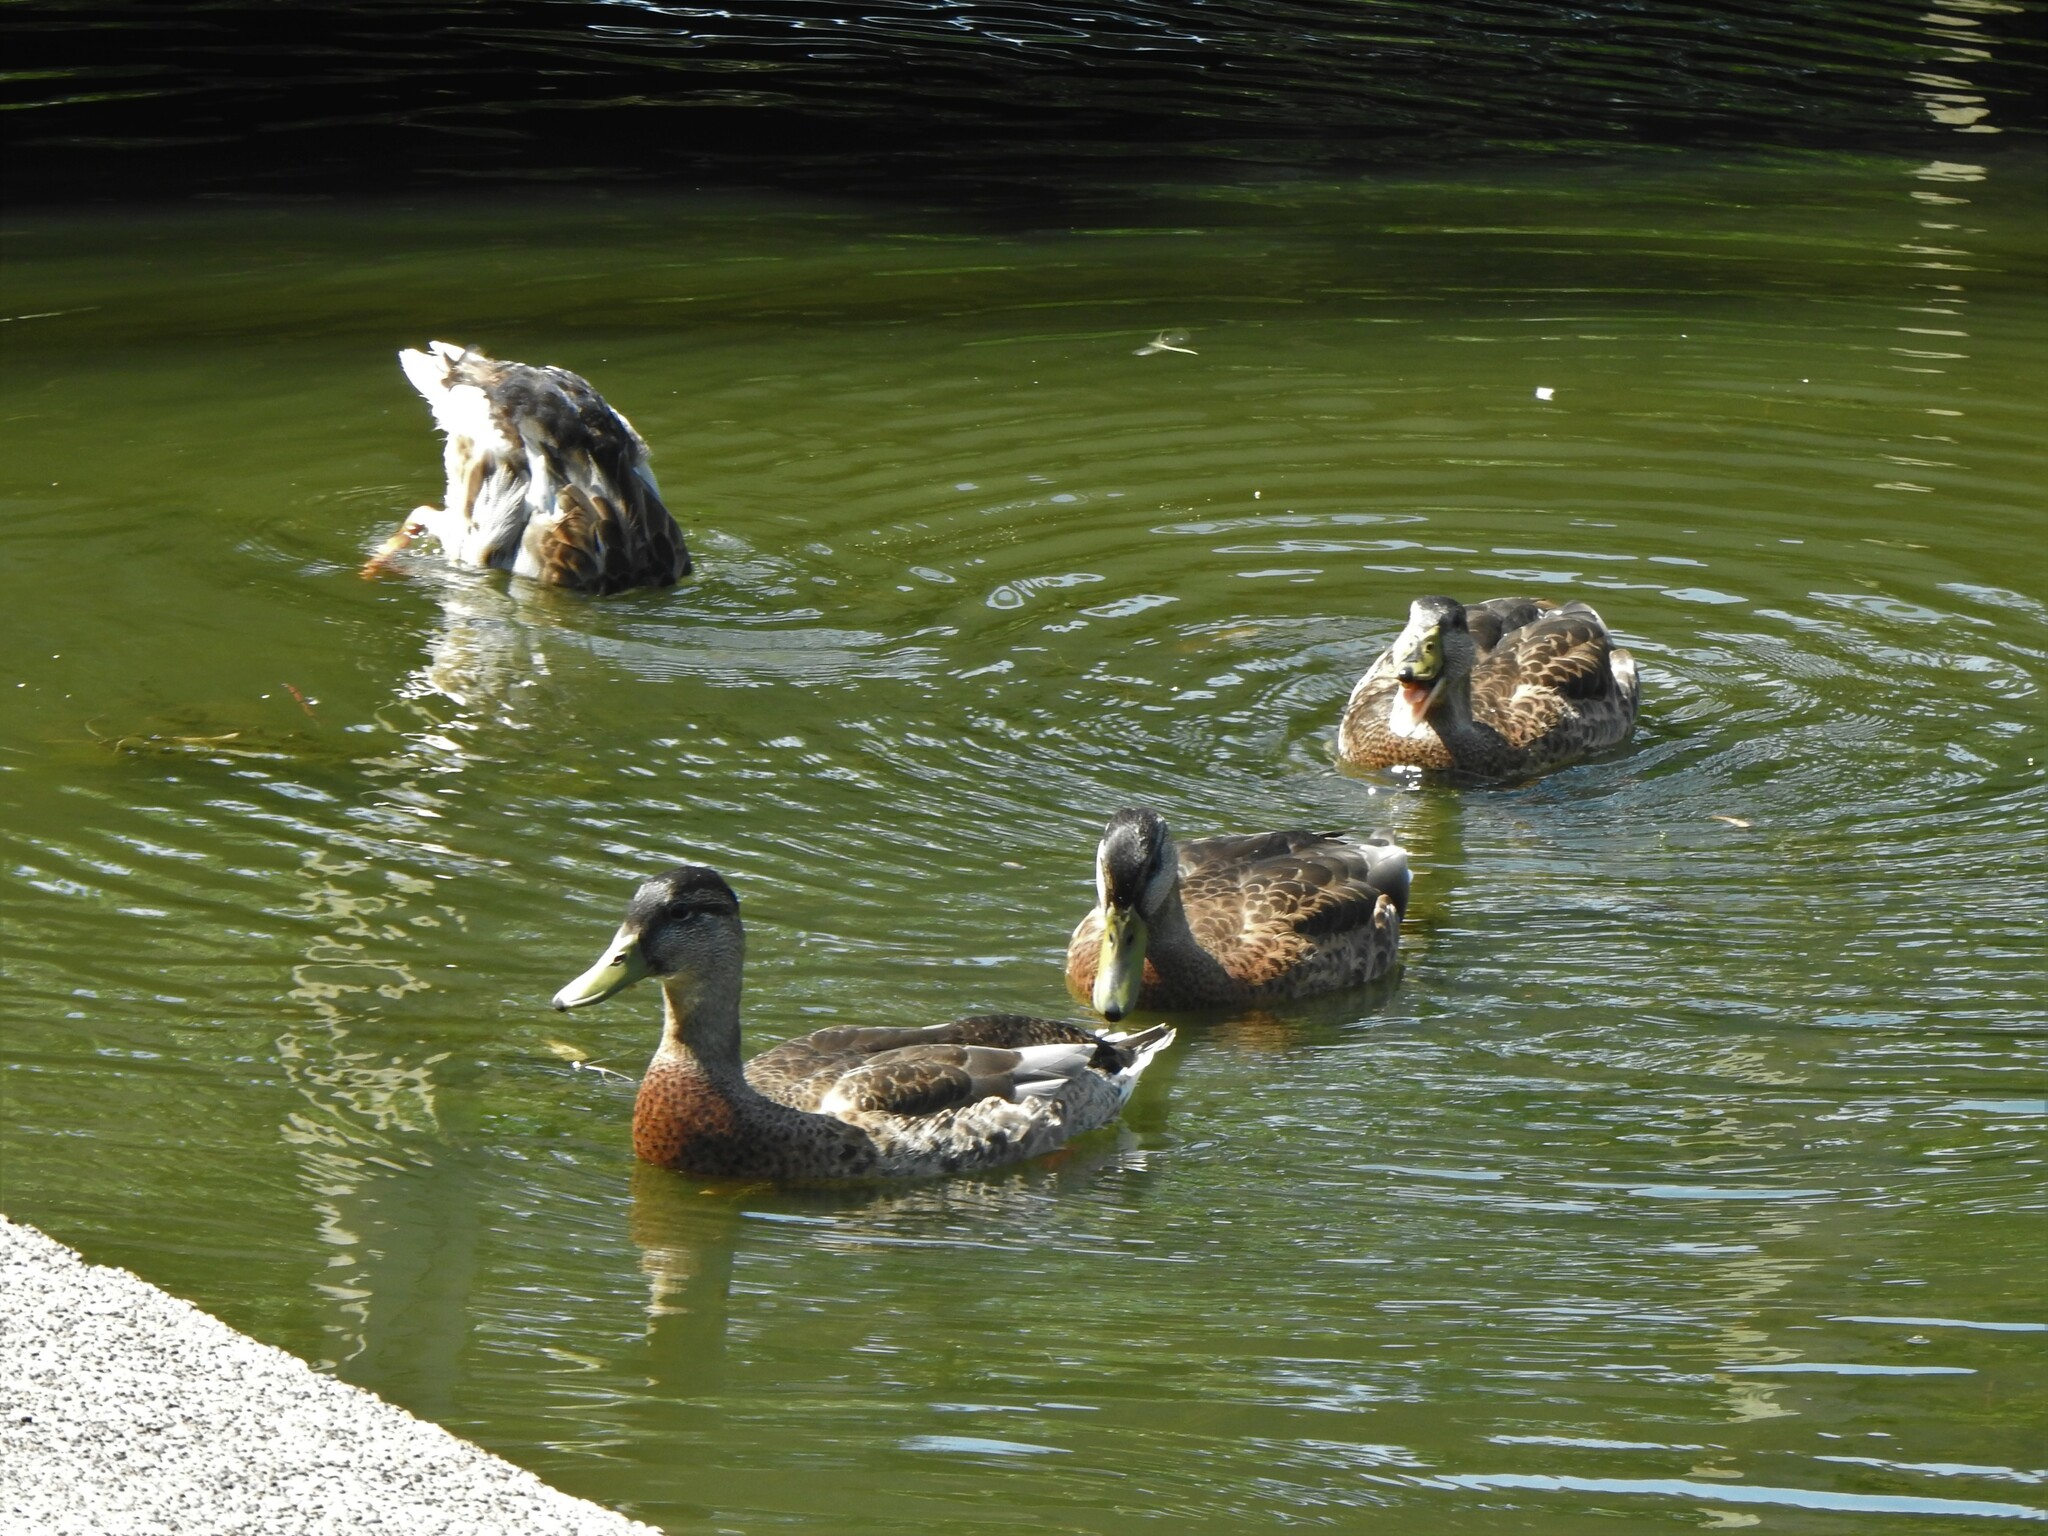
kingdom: Animalia
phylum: Chordata
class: Aves
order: Anseriformes
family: Anatidae
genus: Anas
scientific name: Anas platyrhynchos
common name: Mallard
